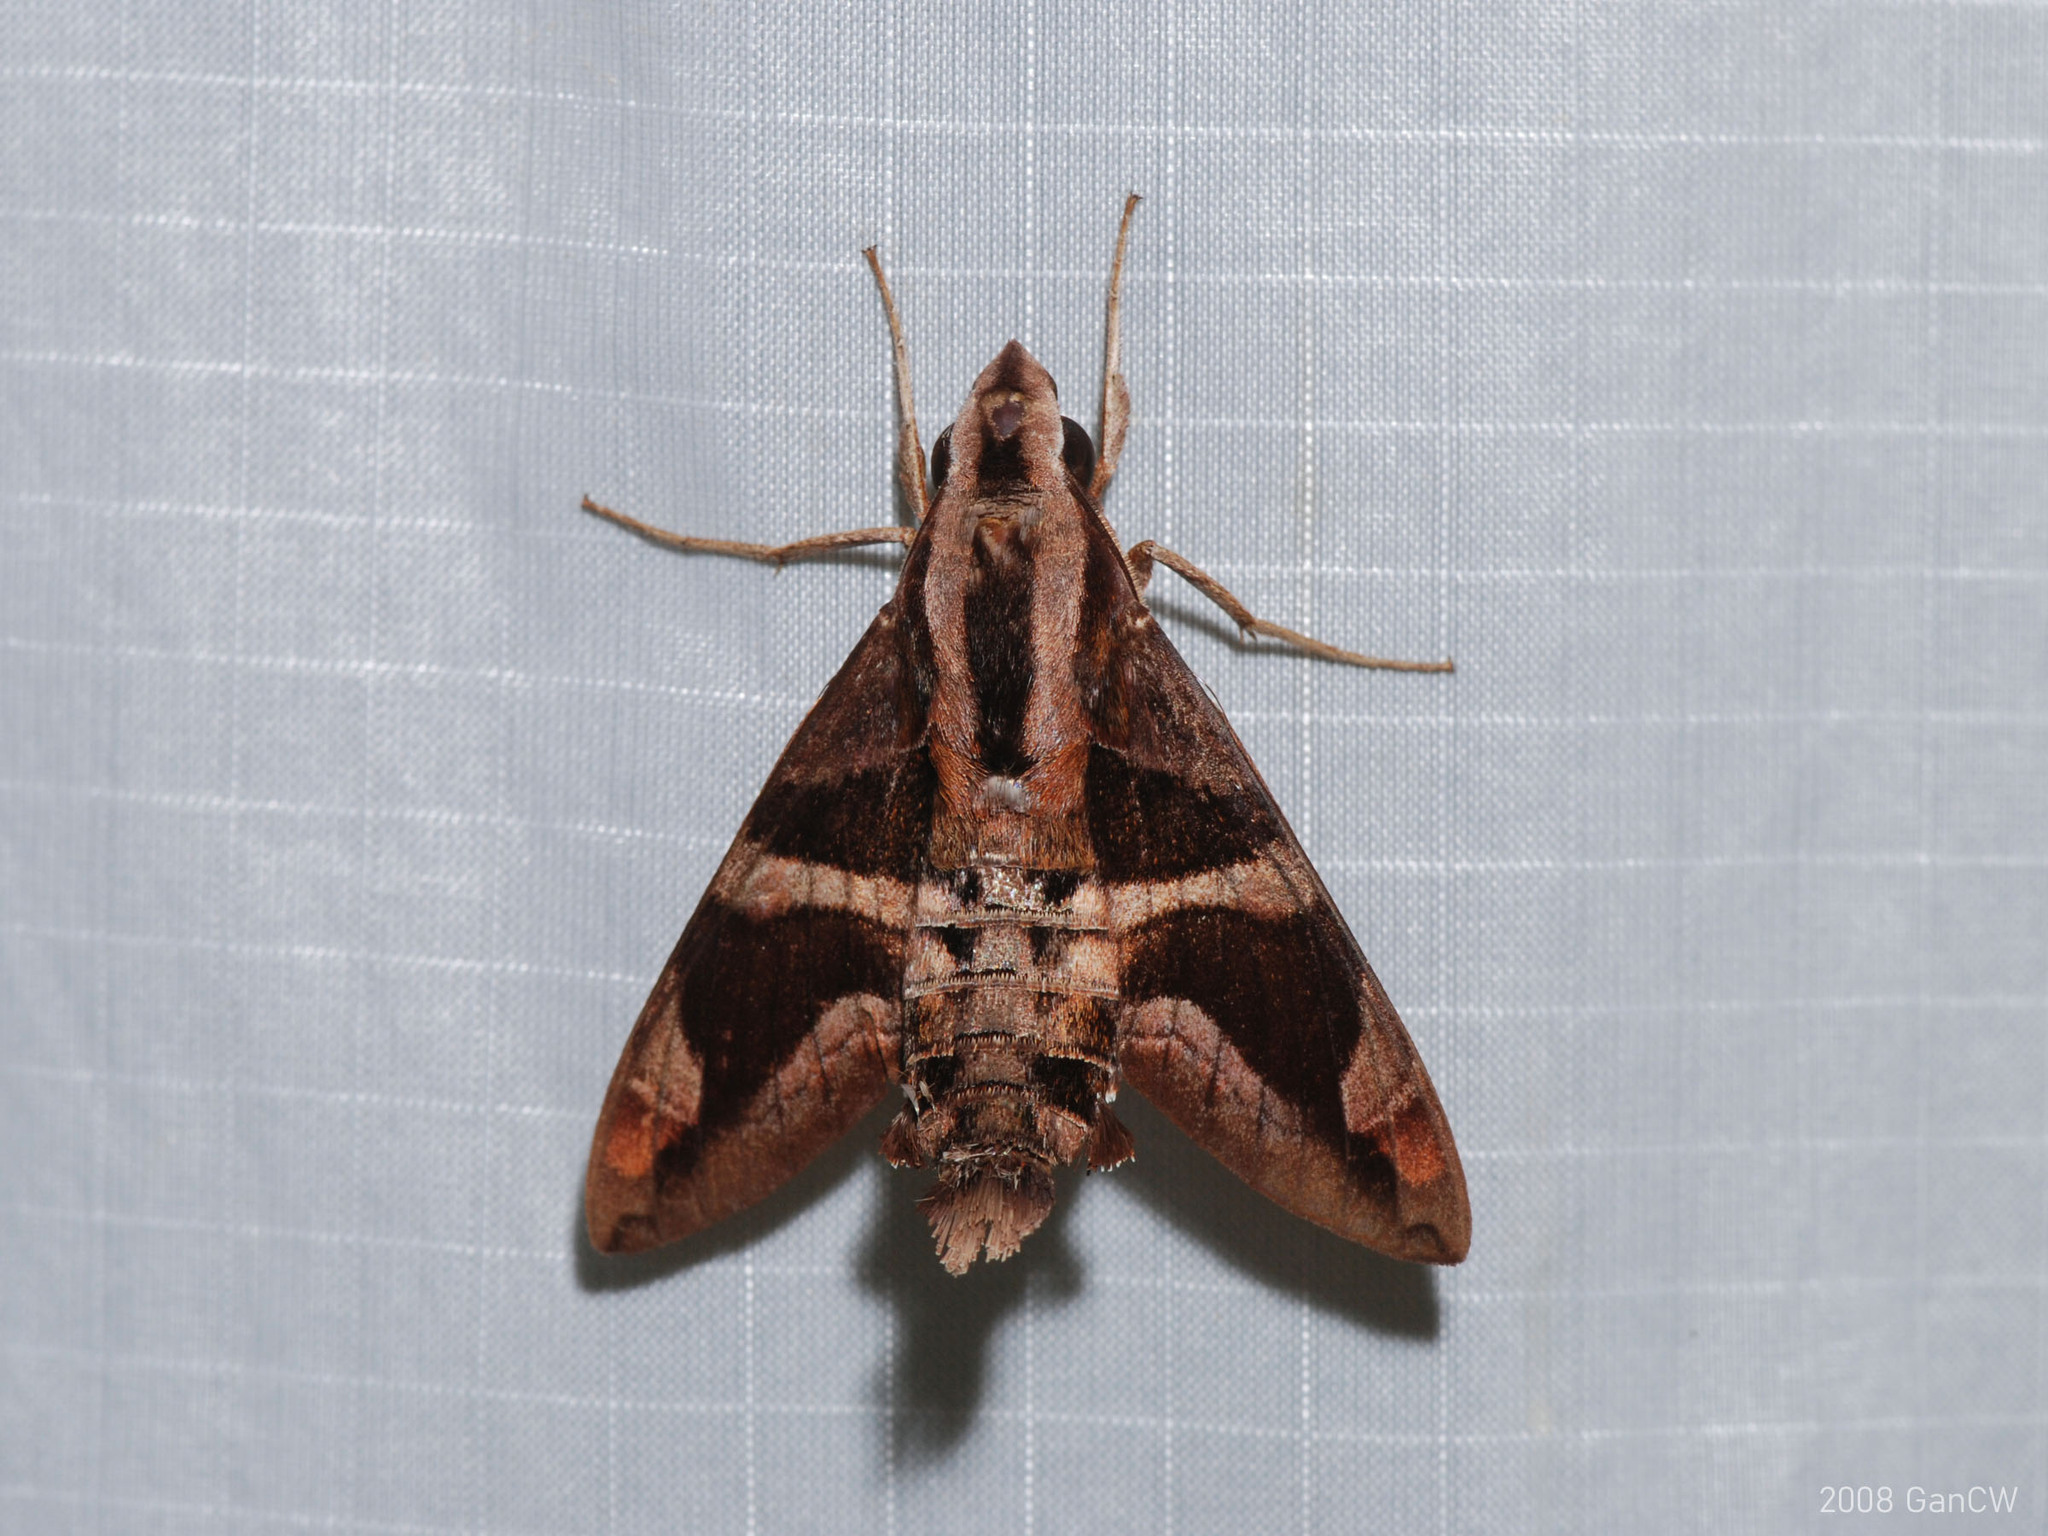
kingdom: Animalia
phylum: Arthropoda
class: Insecta
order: Lepidoptera
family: Sphingidae
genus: Macroglossum
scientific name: Macroglossum mitchellii
